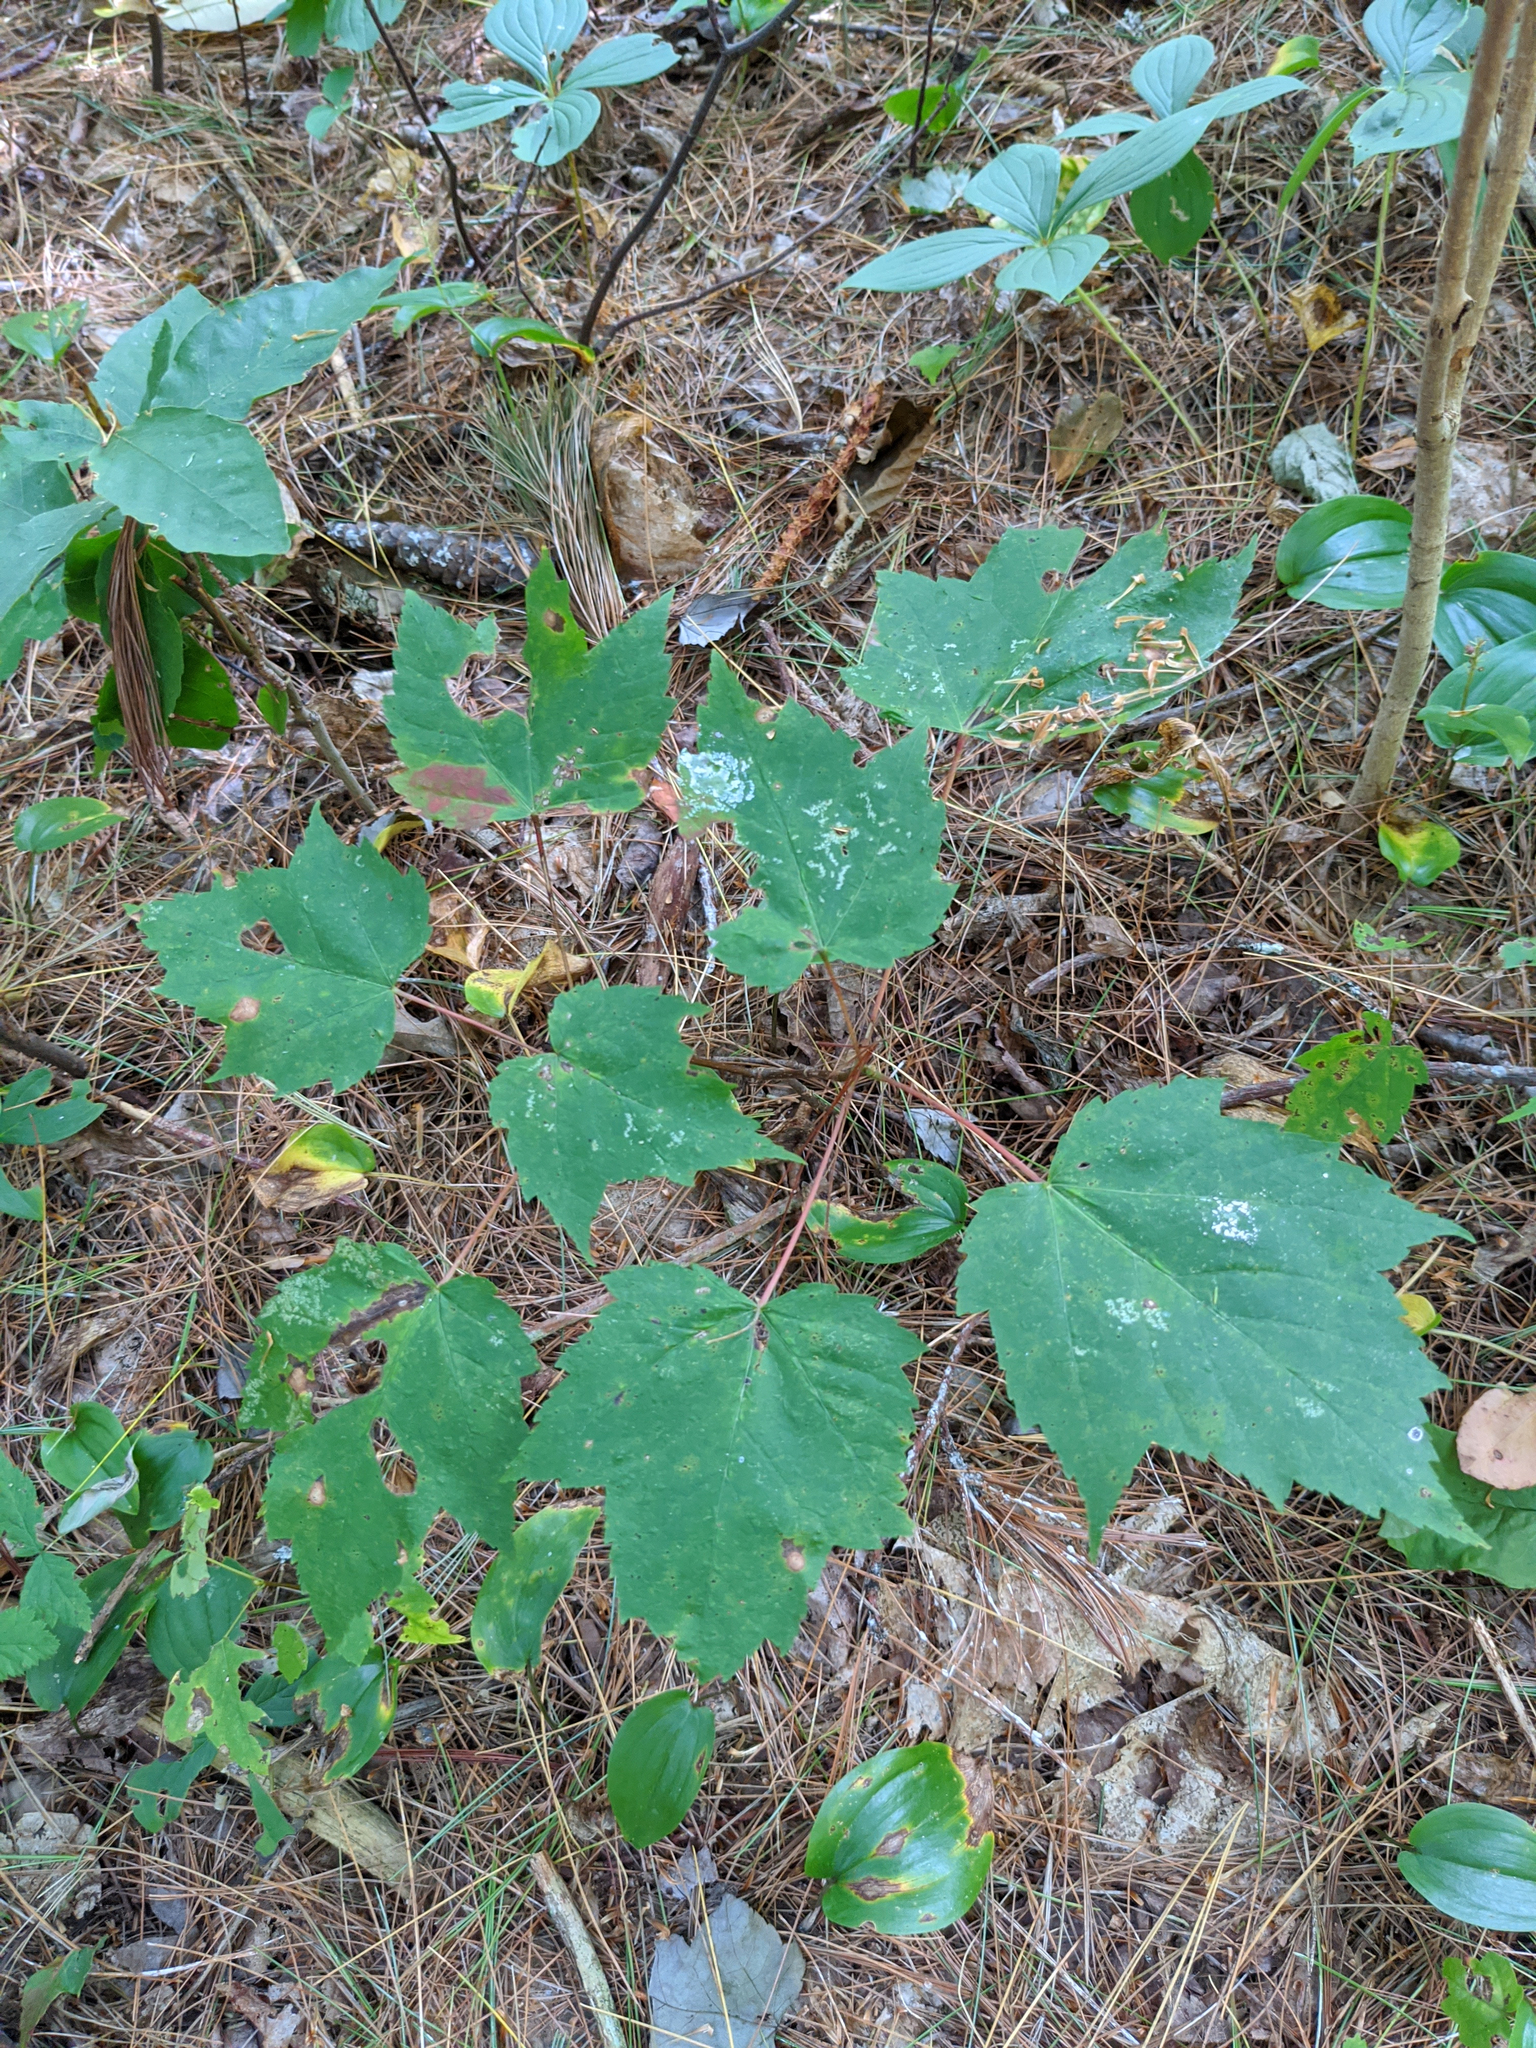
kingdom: Plantae
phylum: Tracheophyta
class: Magnoliopsida
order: Sapindales
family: Sapindaceae
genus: Acer
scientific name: Acer rubrum
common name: Red maple
